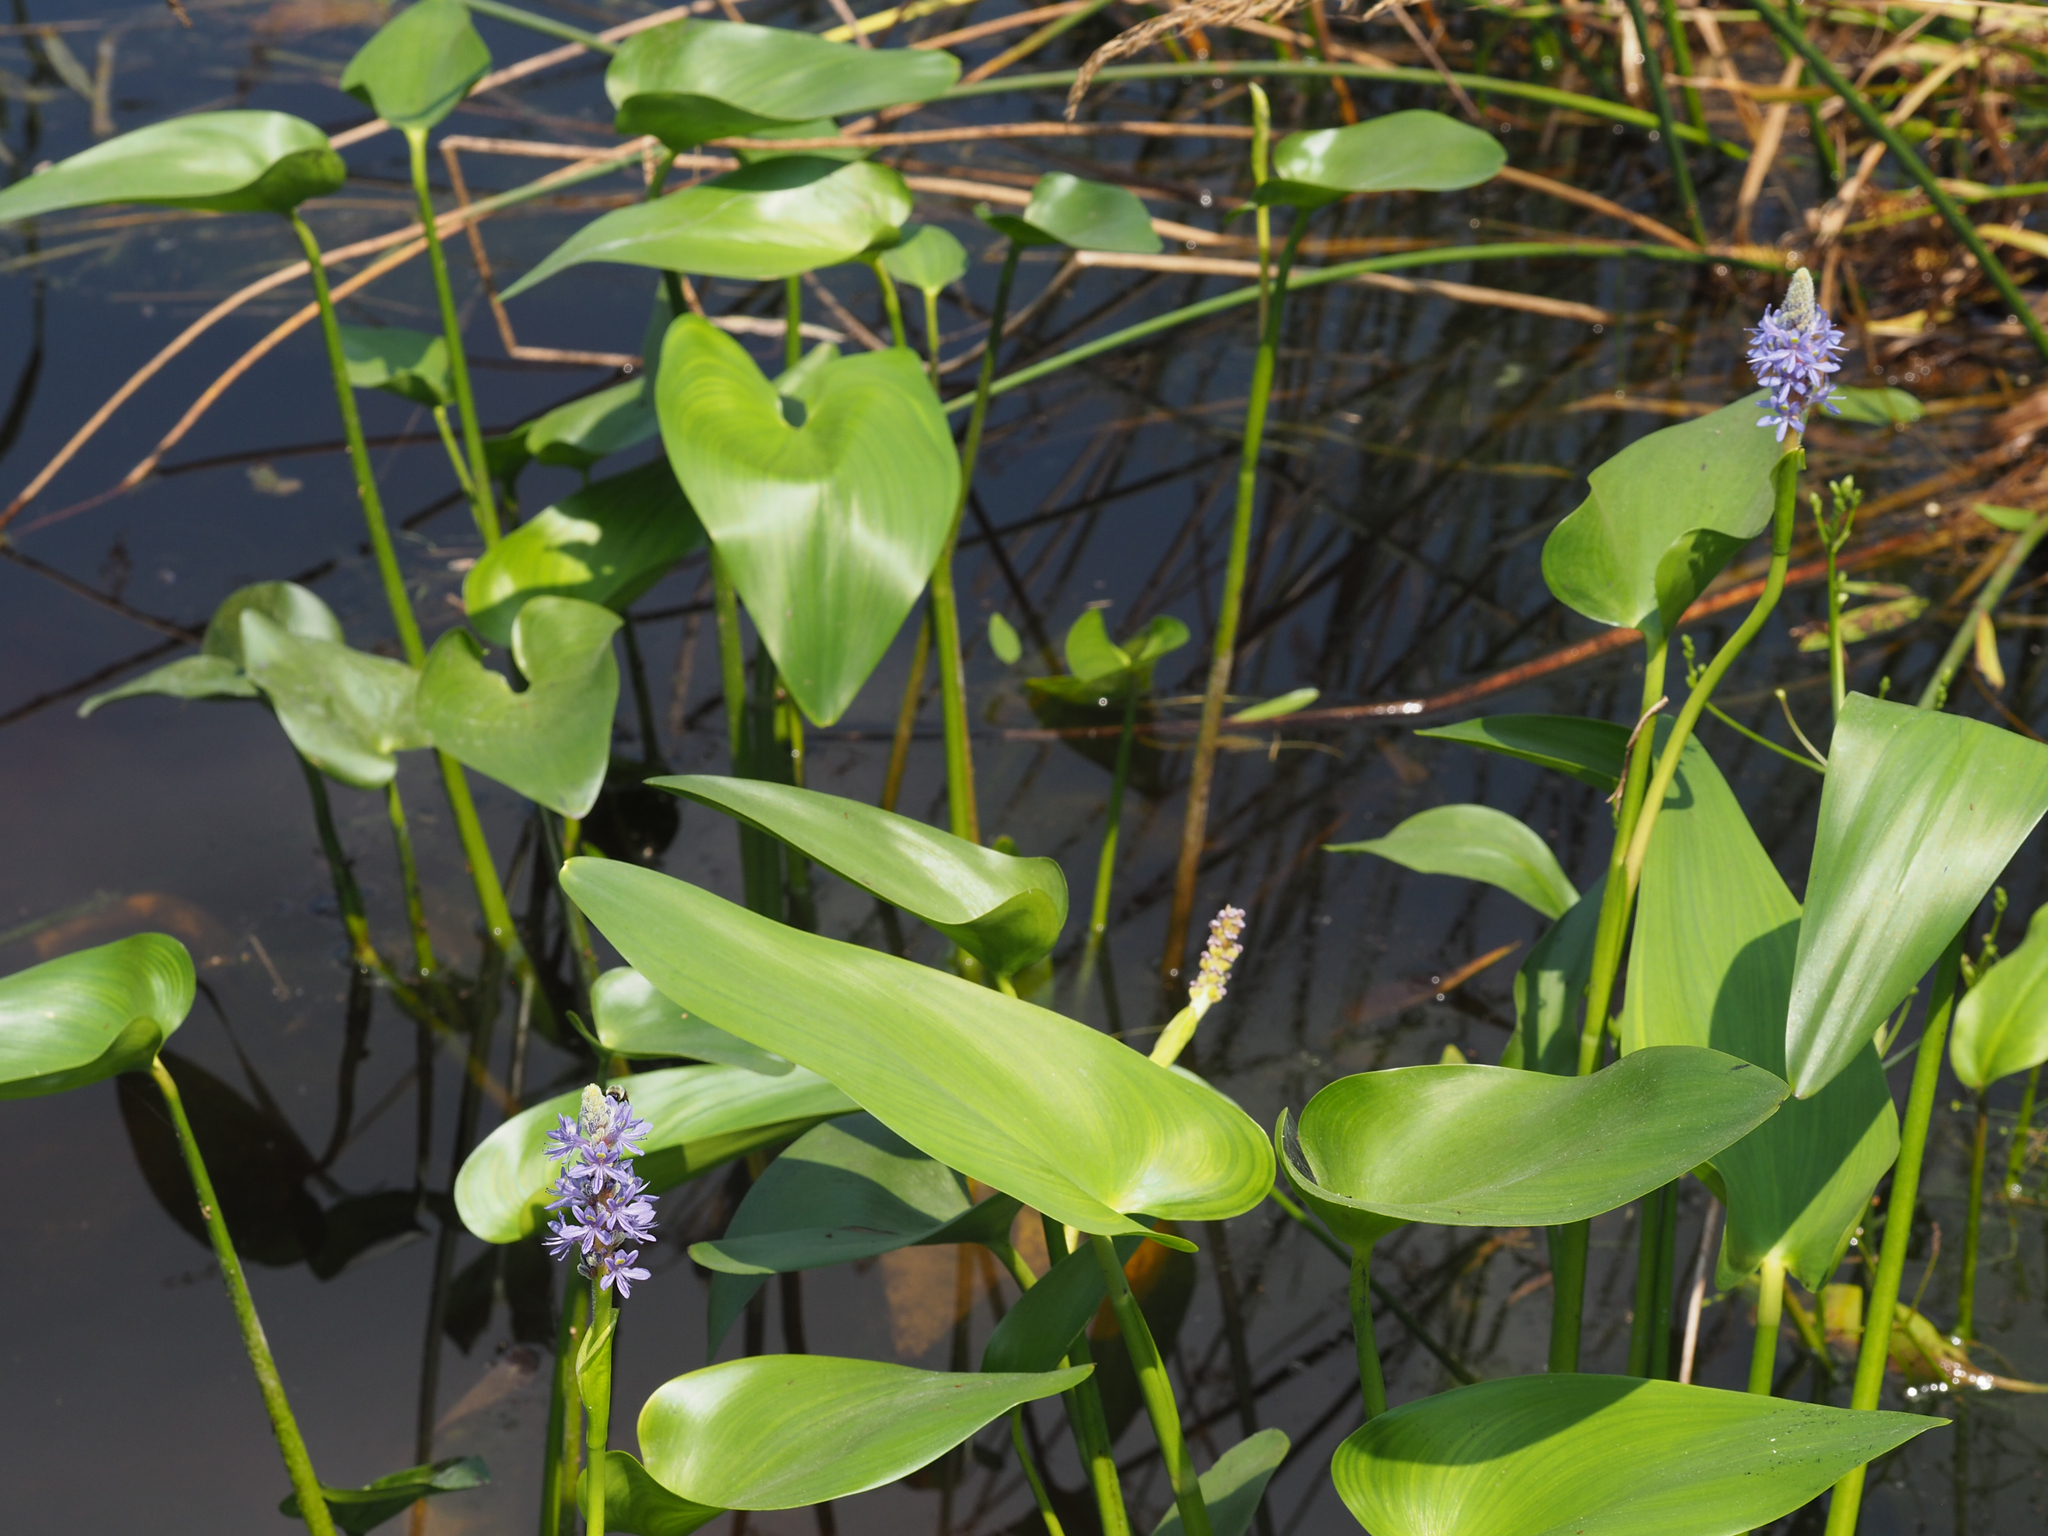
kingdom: Plantae
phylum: Tracheophyta
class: Liliopsida
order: Commelinales
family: Pontederiaceae
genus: Pontederia
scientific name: Pontederia cordata
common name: Pickerelweed
